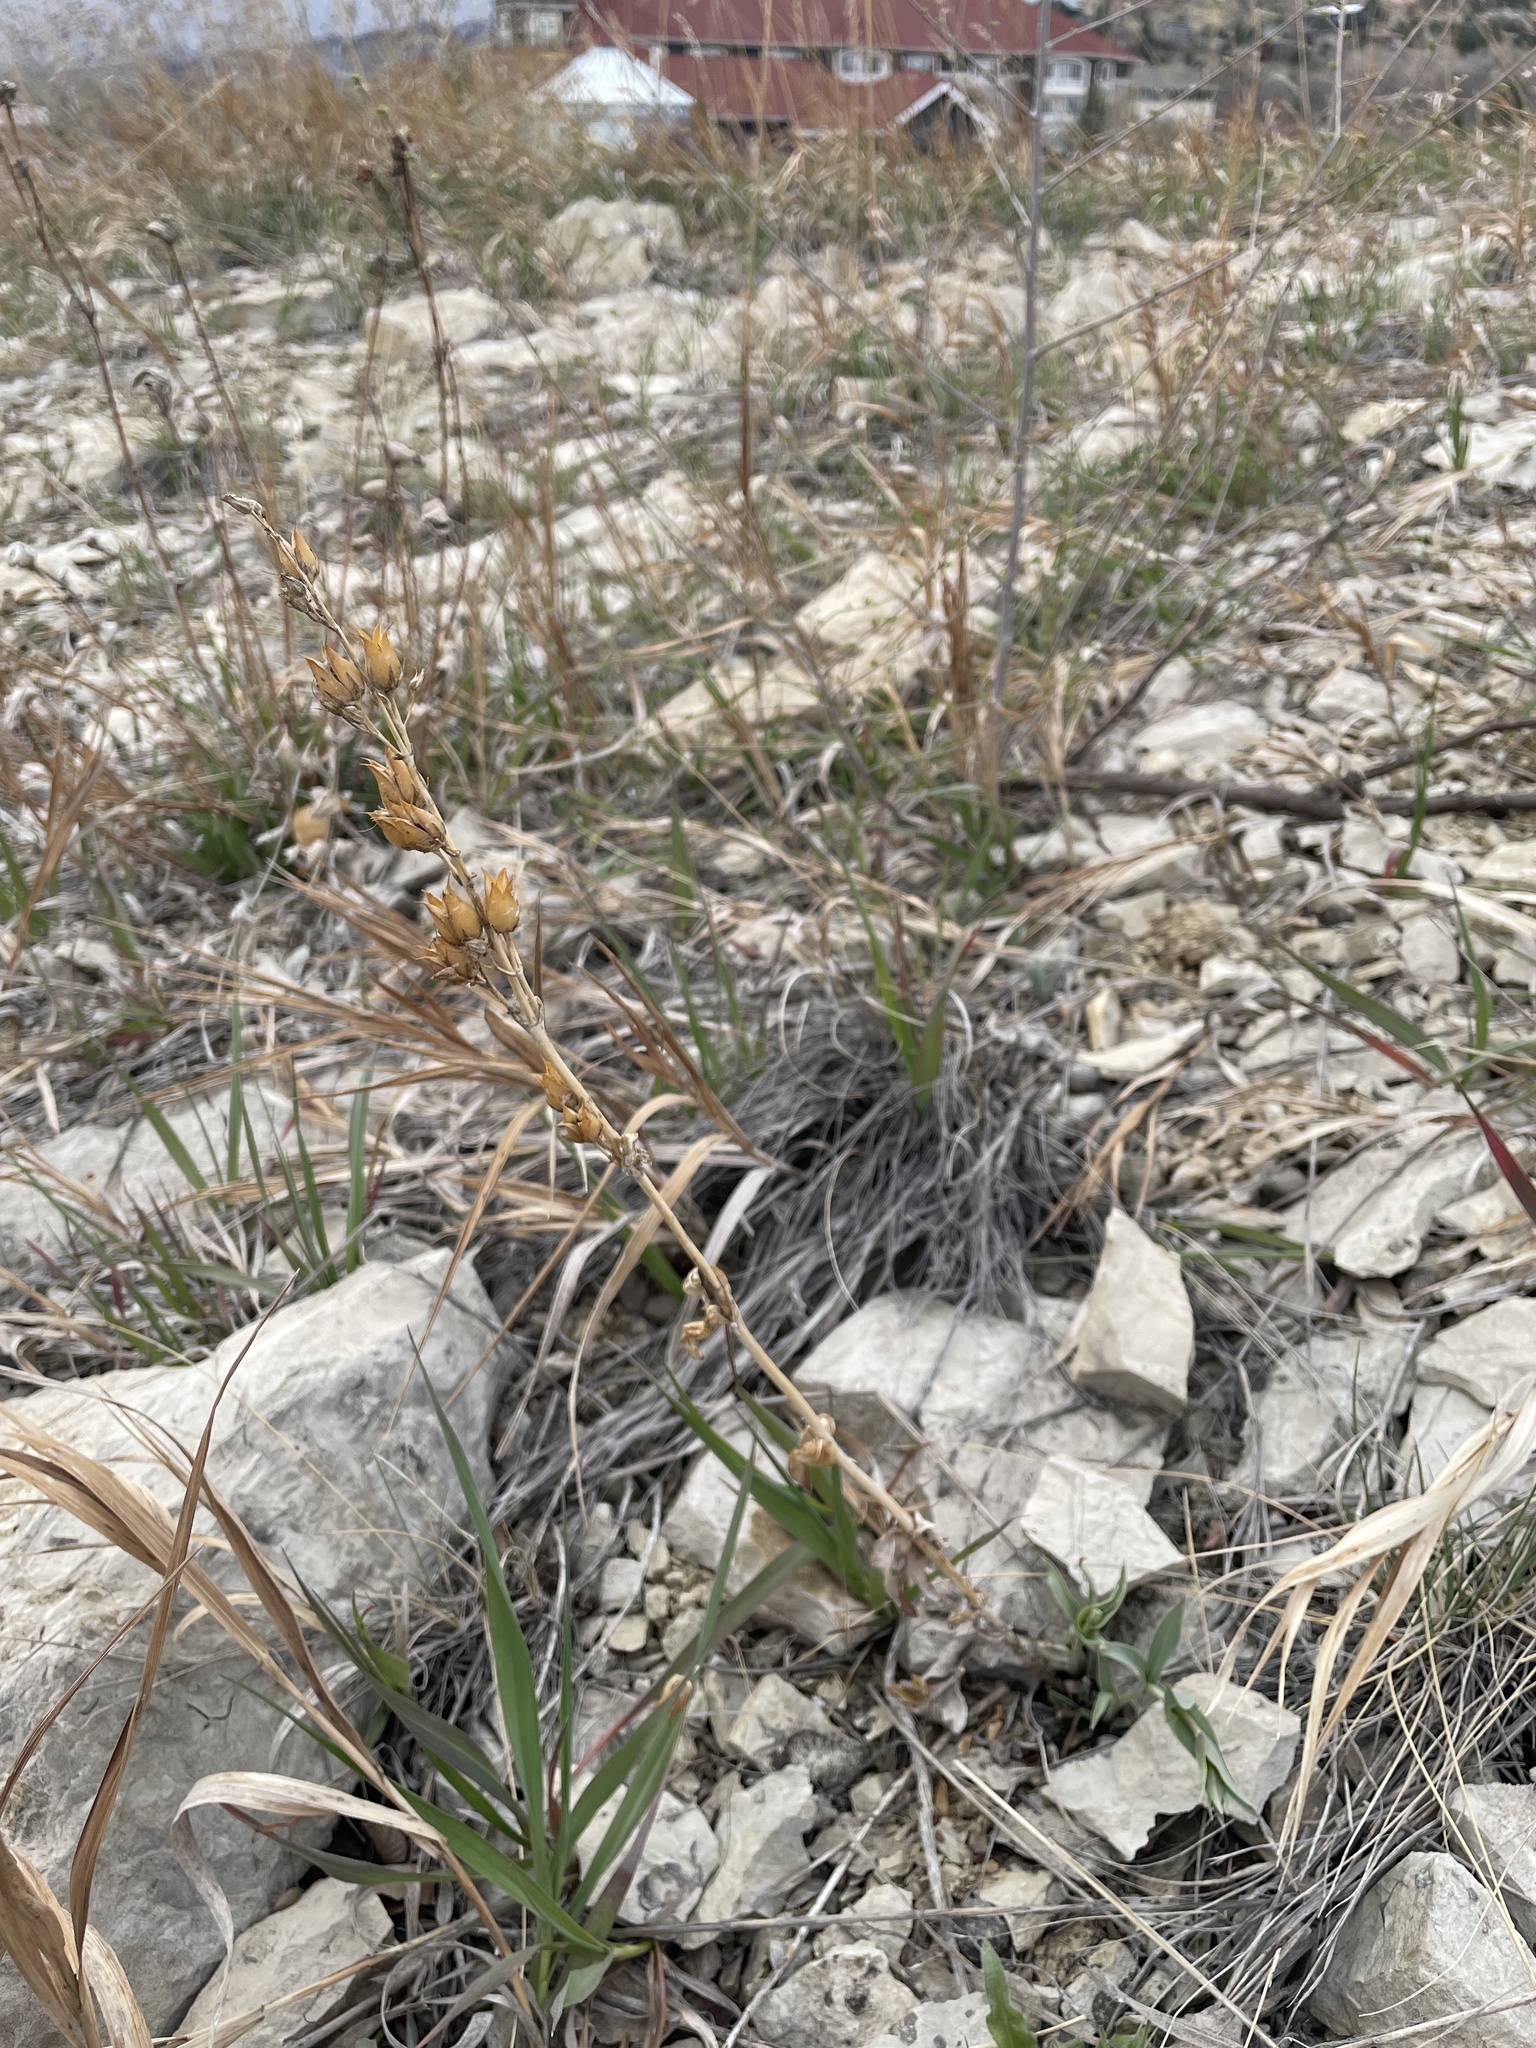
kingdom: Plantae
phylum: Tracheophyta
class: Magnoliopsida
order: Lamiales
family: Plantaginaceae
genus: Penstemon
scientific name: Penstemon secundiflorus
